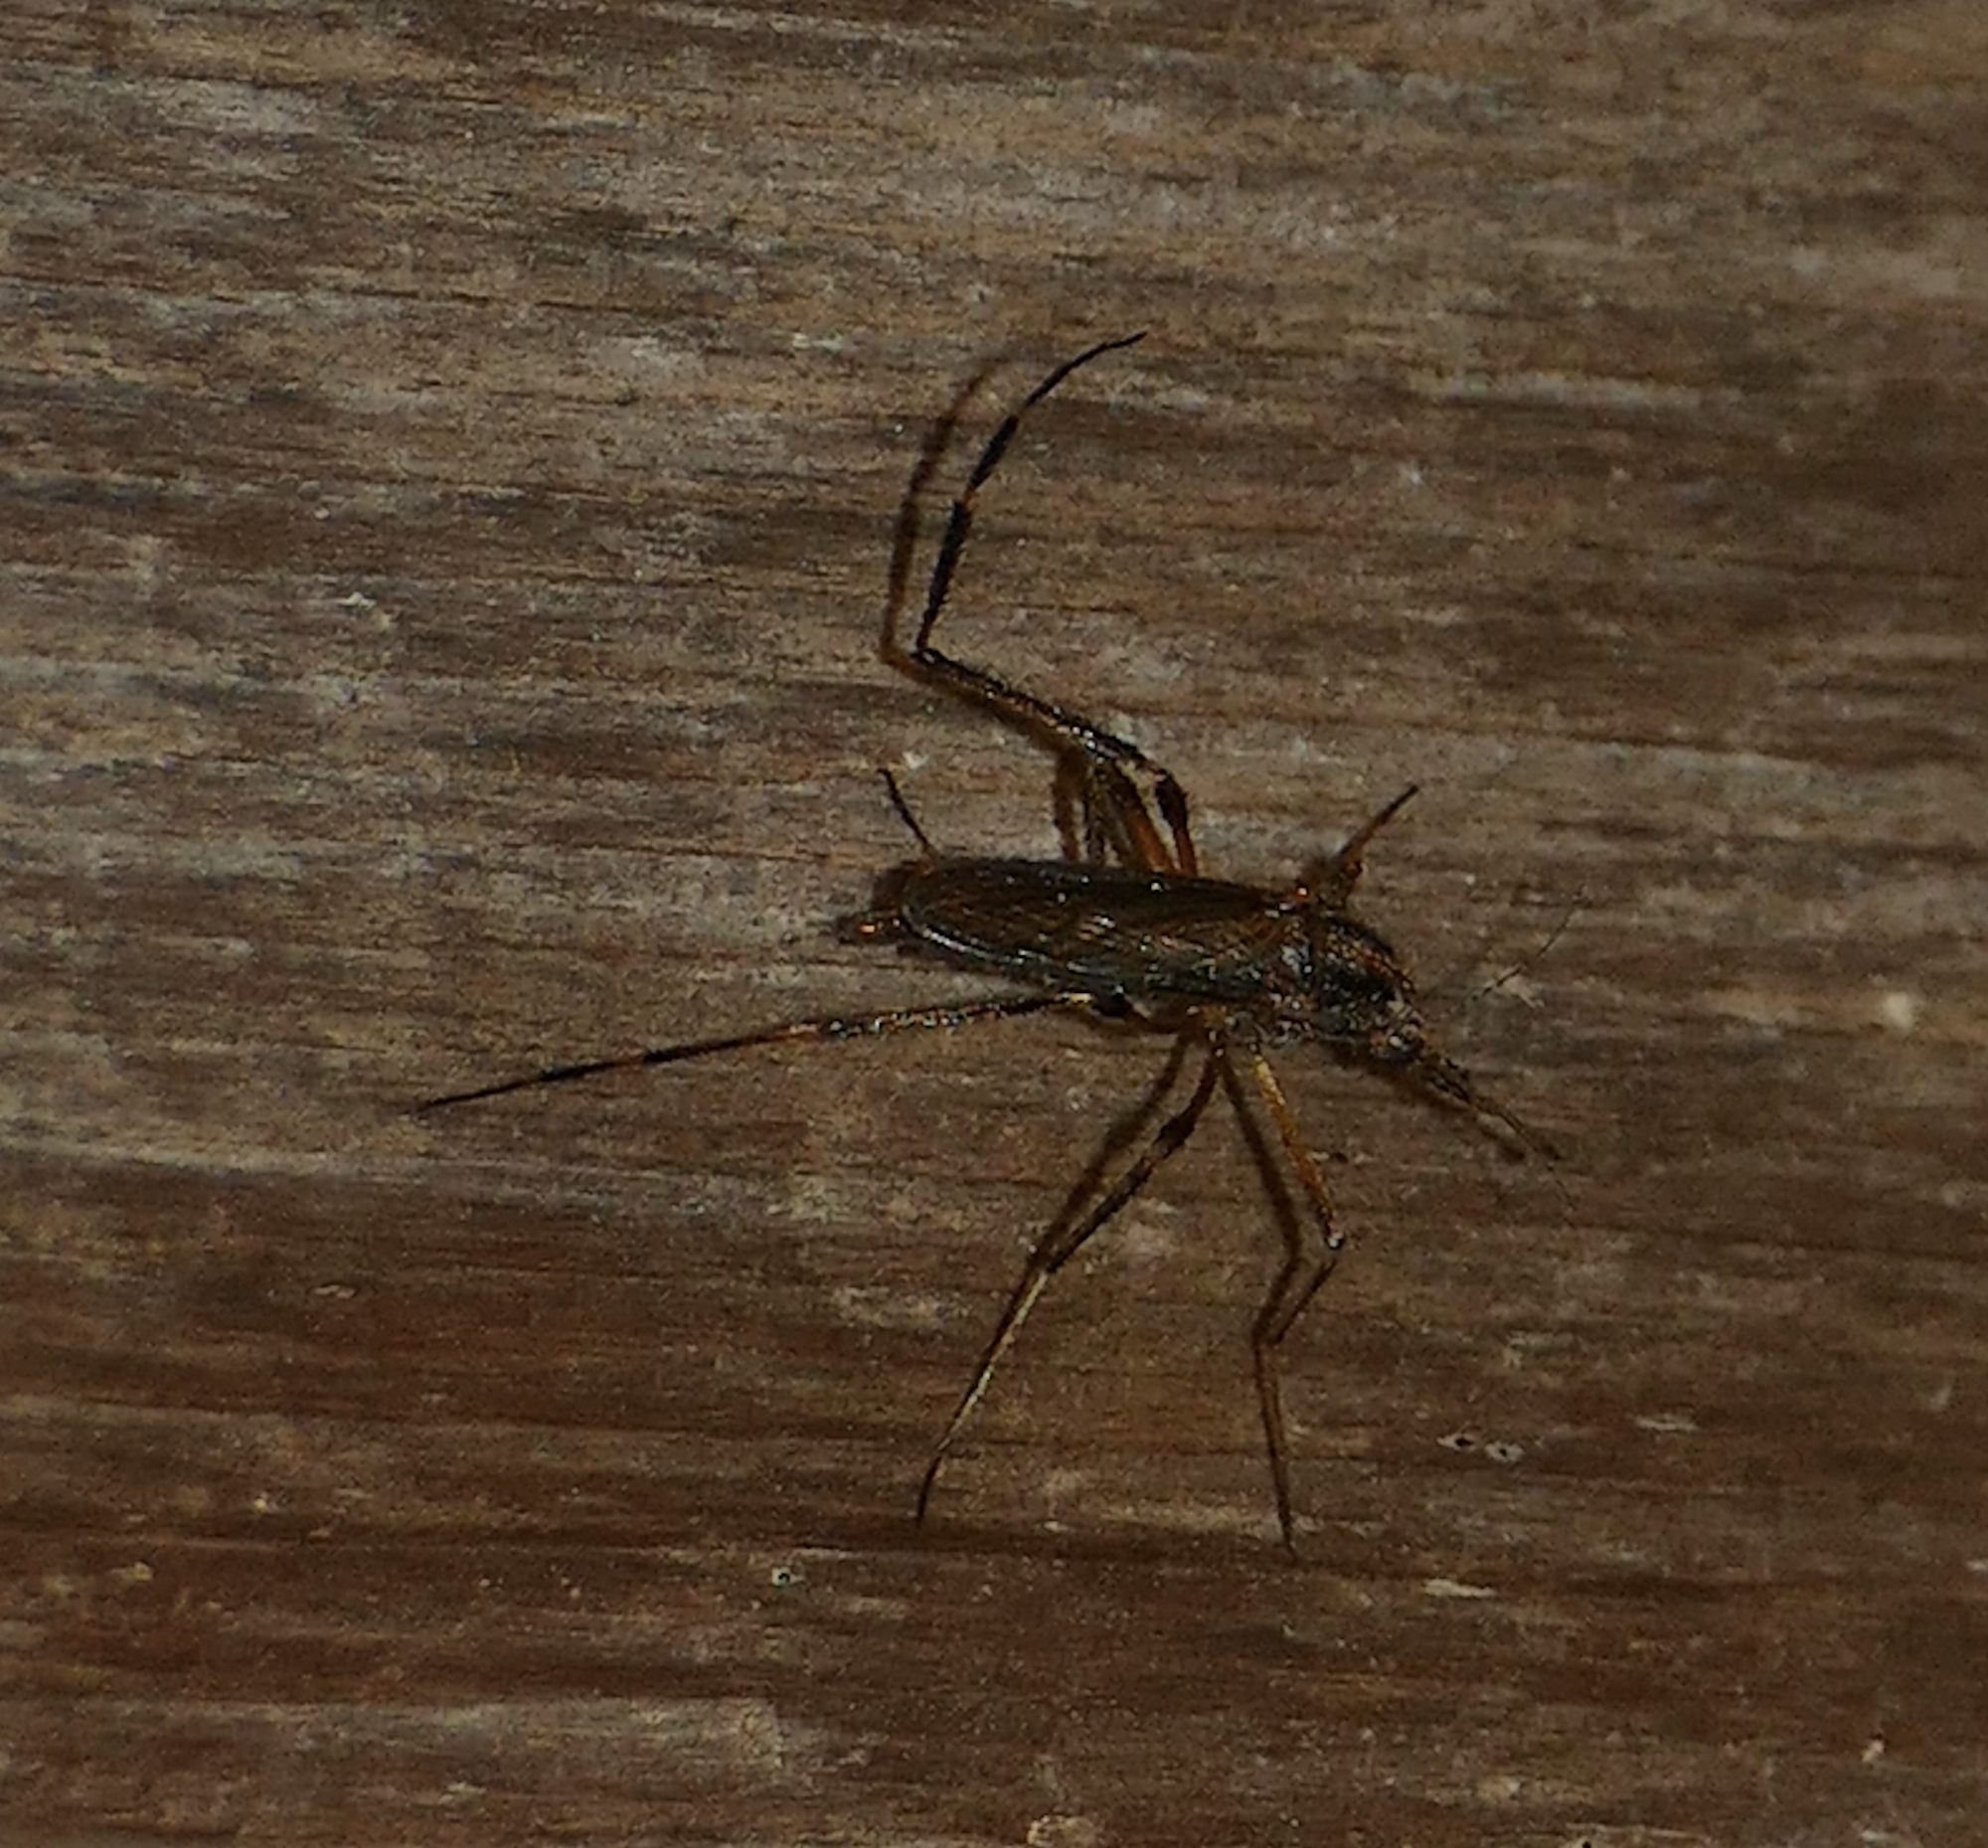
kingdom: Animalia
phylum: Arthropoda
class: Insecta
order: Diptera
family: Culicidae
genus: Psorophora
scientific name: Psorophora ciliata
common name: Gallinipper
